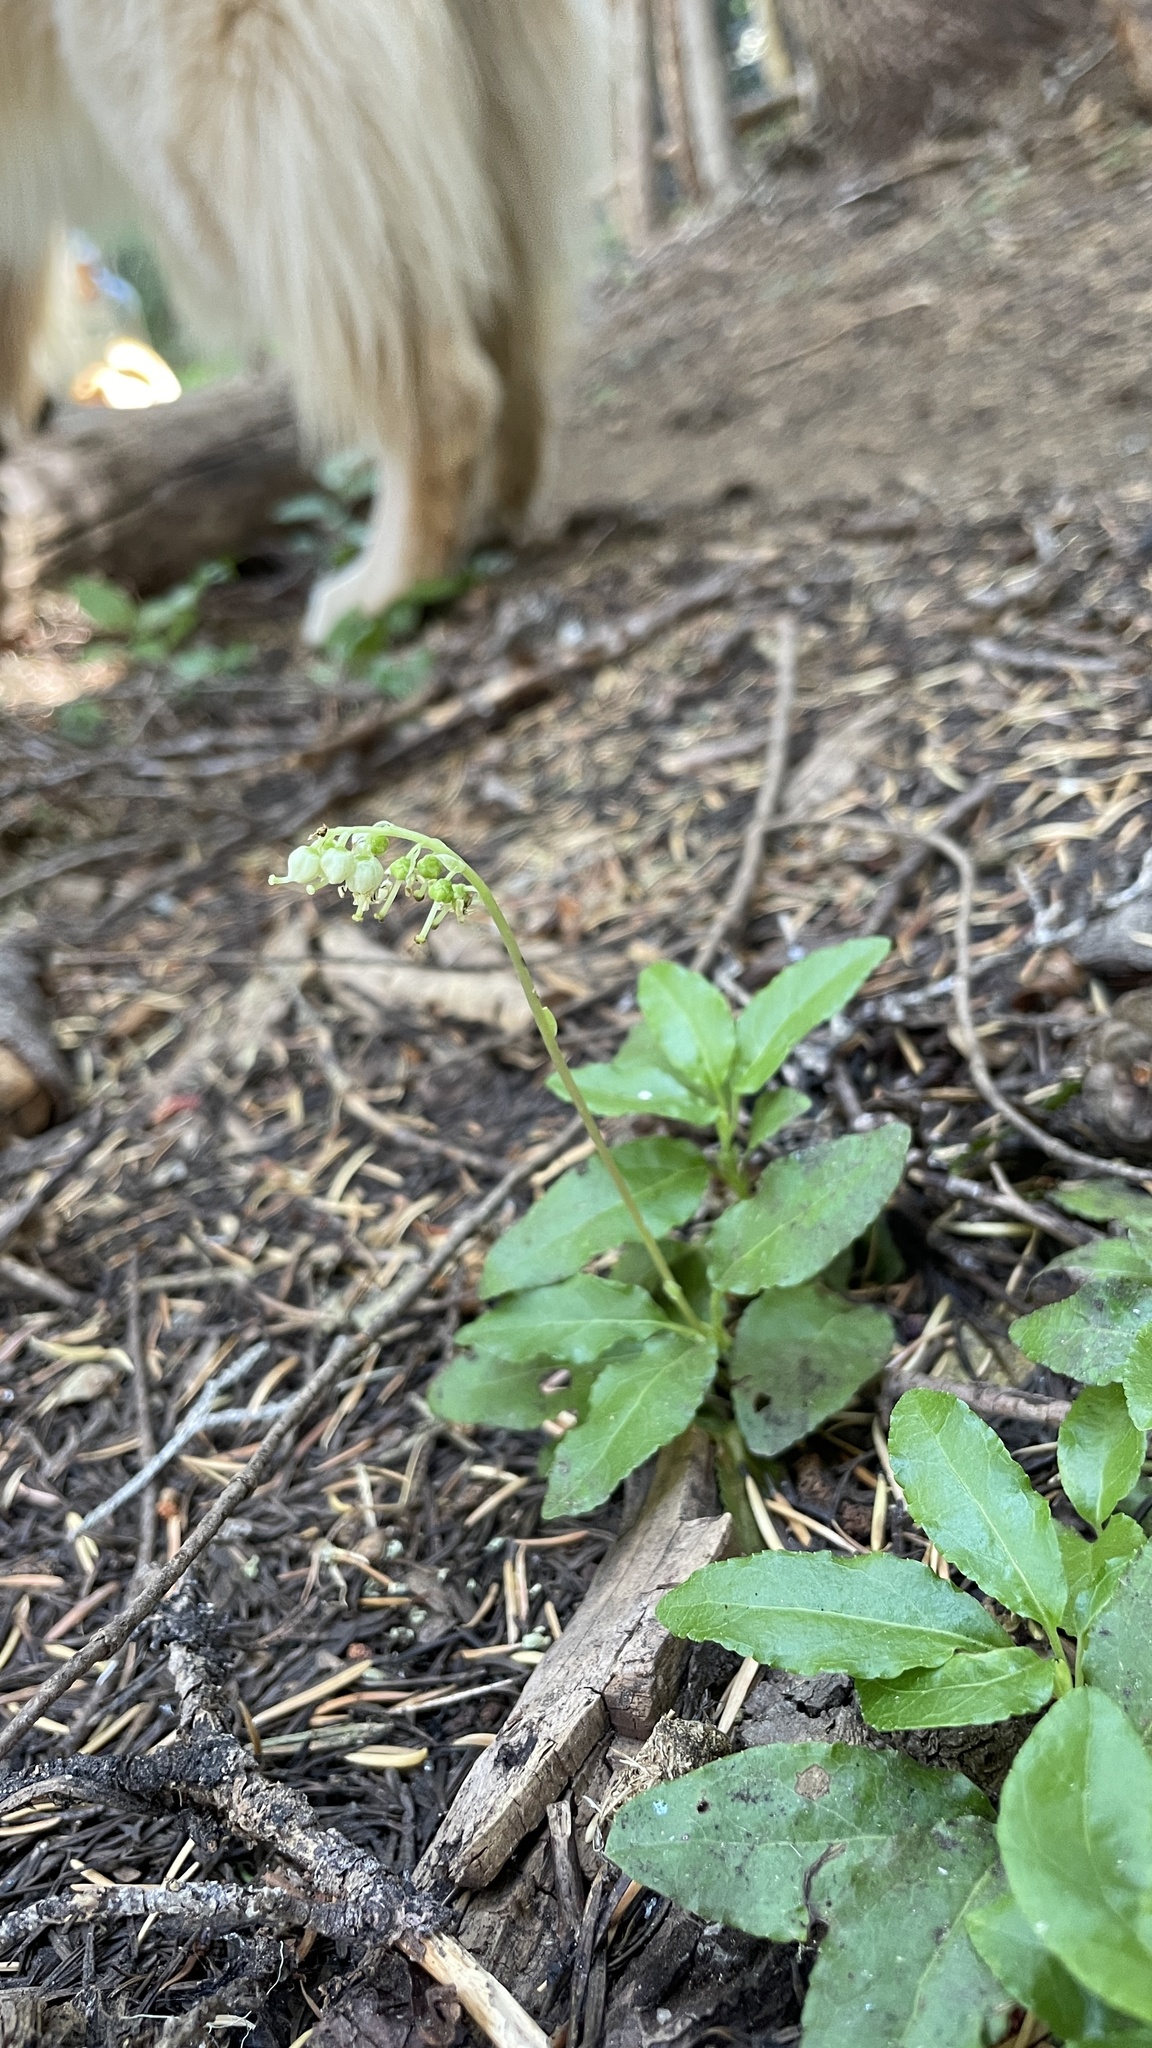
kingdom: Plantae
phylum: Tracheophyta
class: Magnoliopsida
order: Ericales
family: Ericaceae
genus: Orthilia
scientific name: Orthilia secunda
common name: One-sided orthilia
